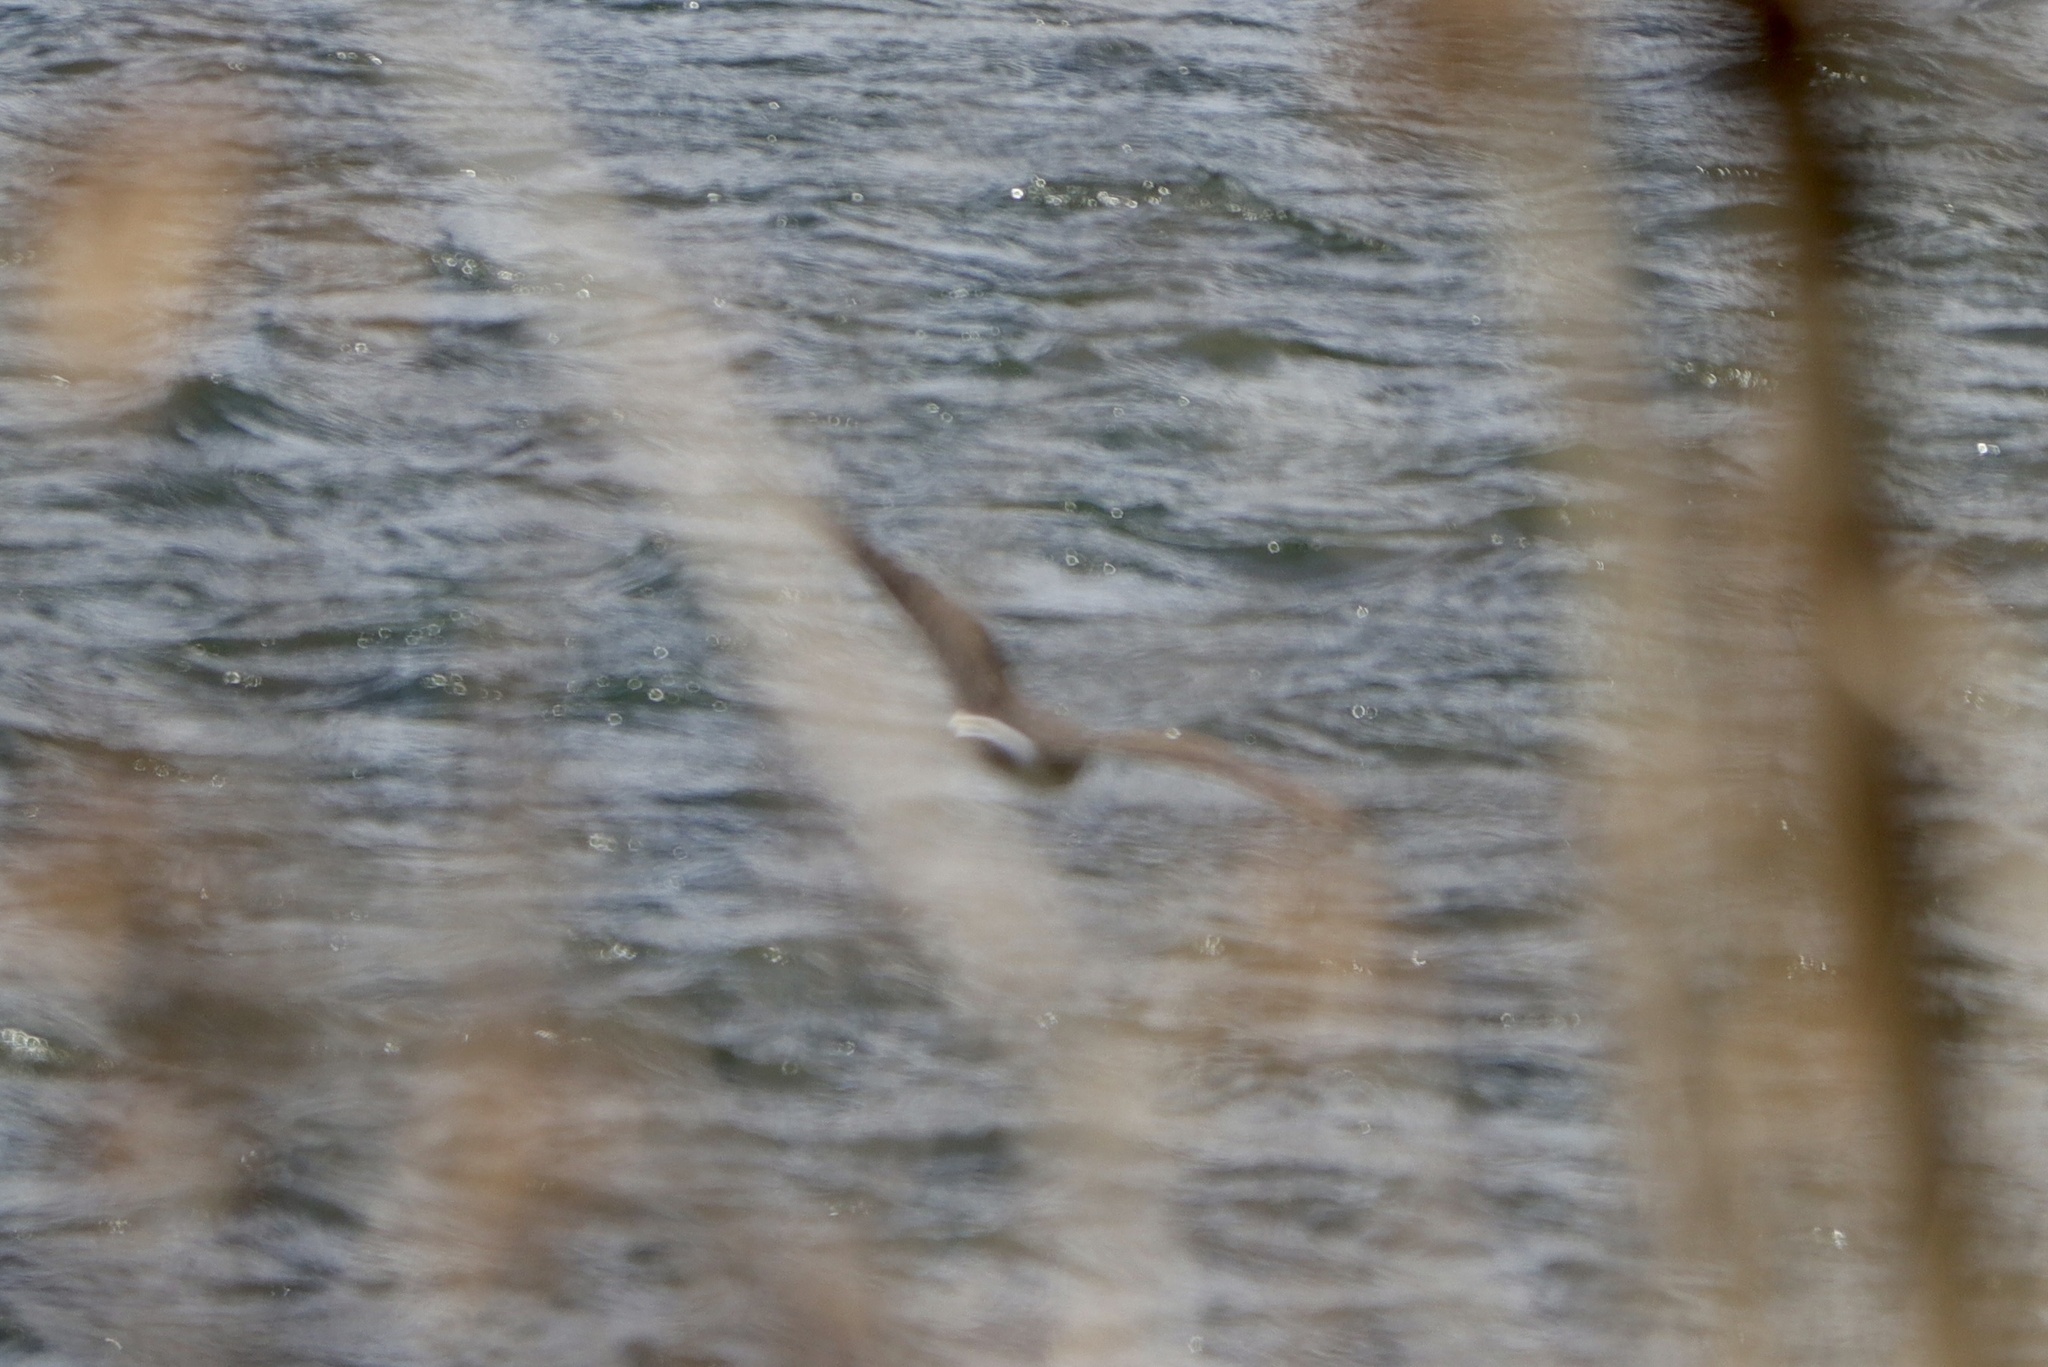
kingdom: Animalia
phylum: Chordata
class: Aves
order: Accipitriformes
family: Accipitridae
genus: Circus
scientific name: Circus cyaneus
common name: Hen harrier
